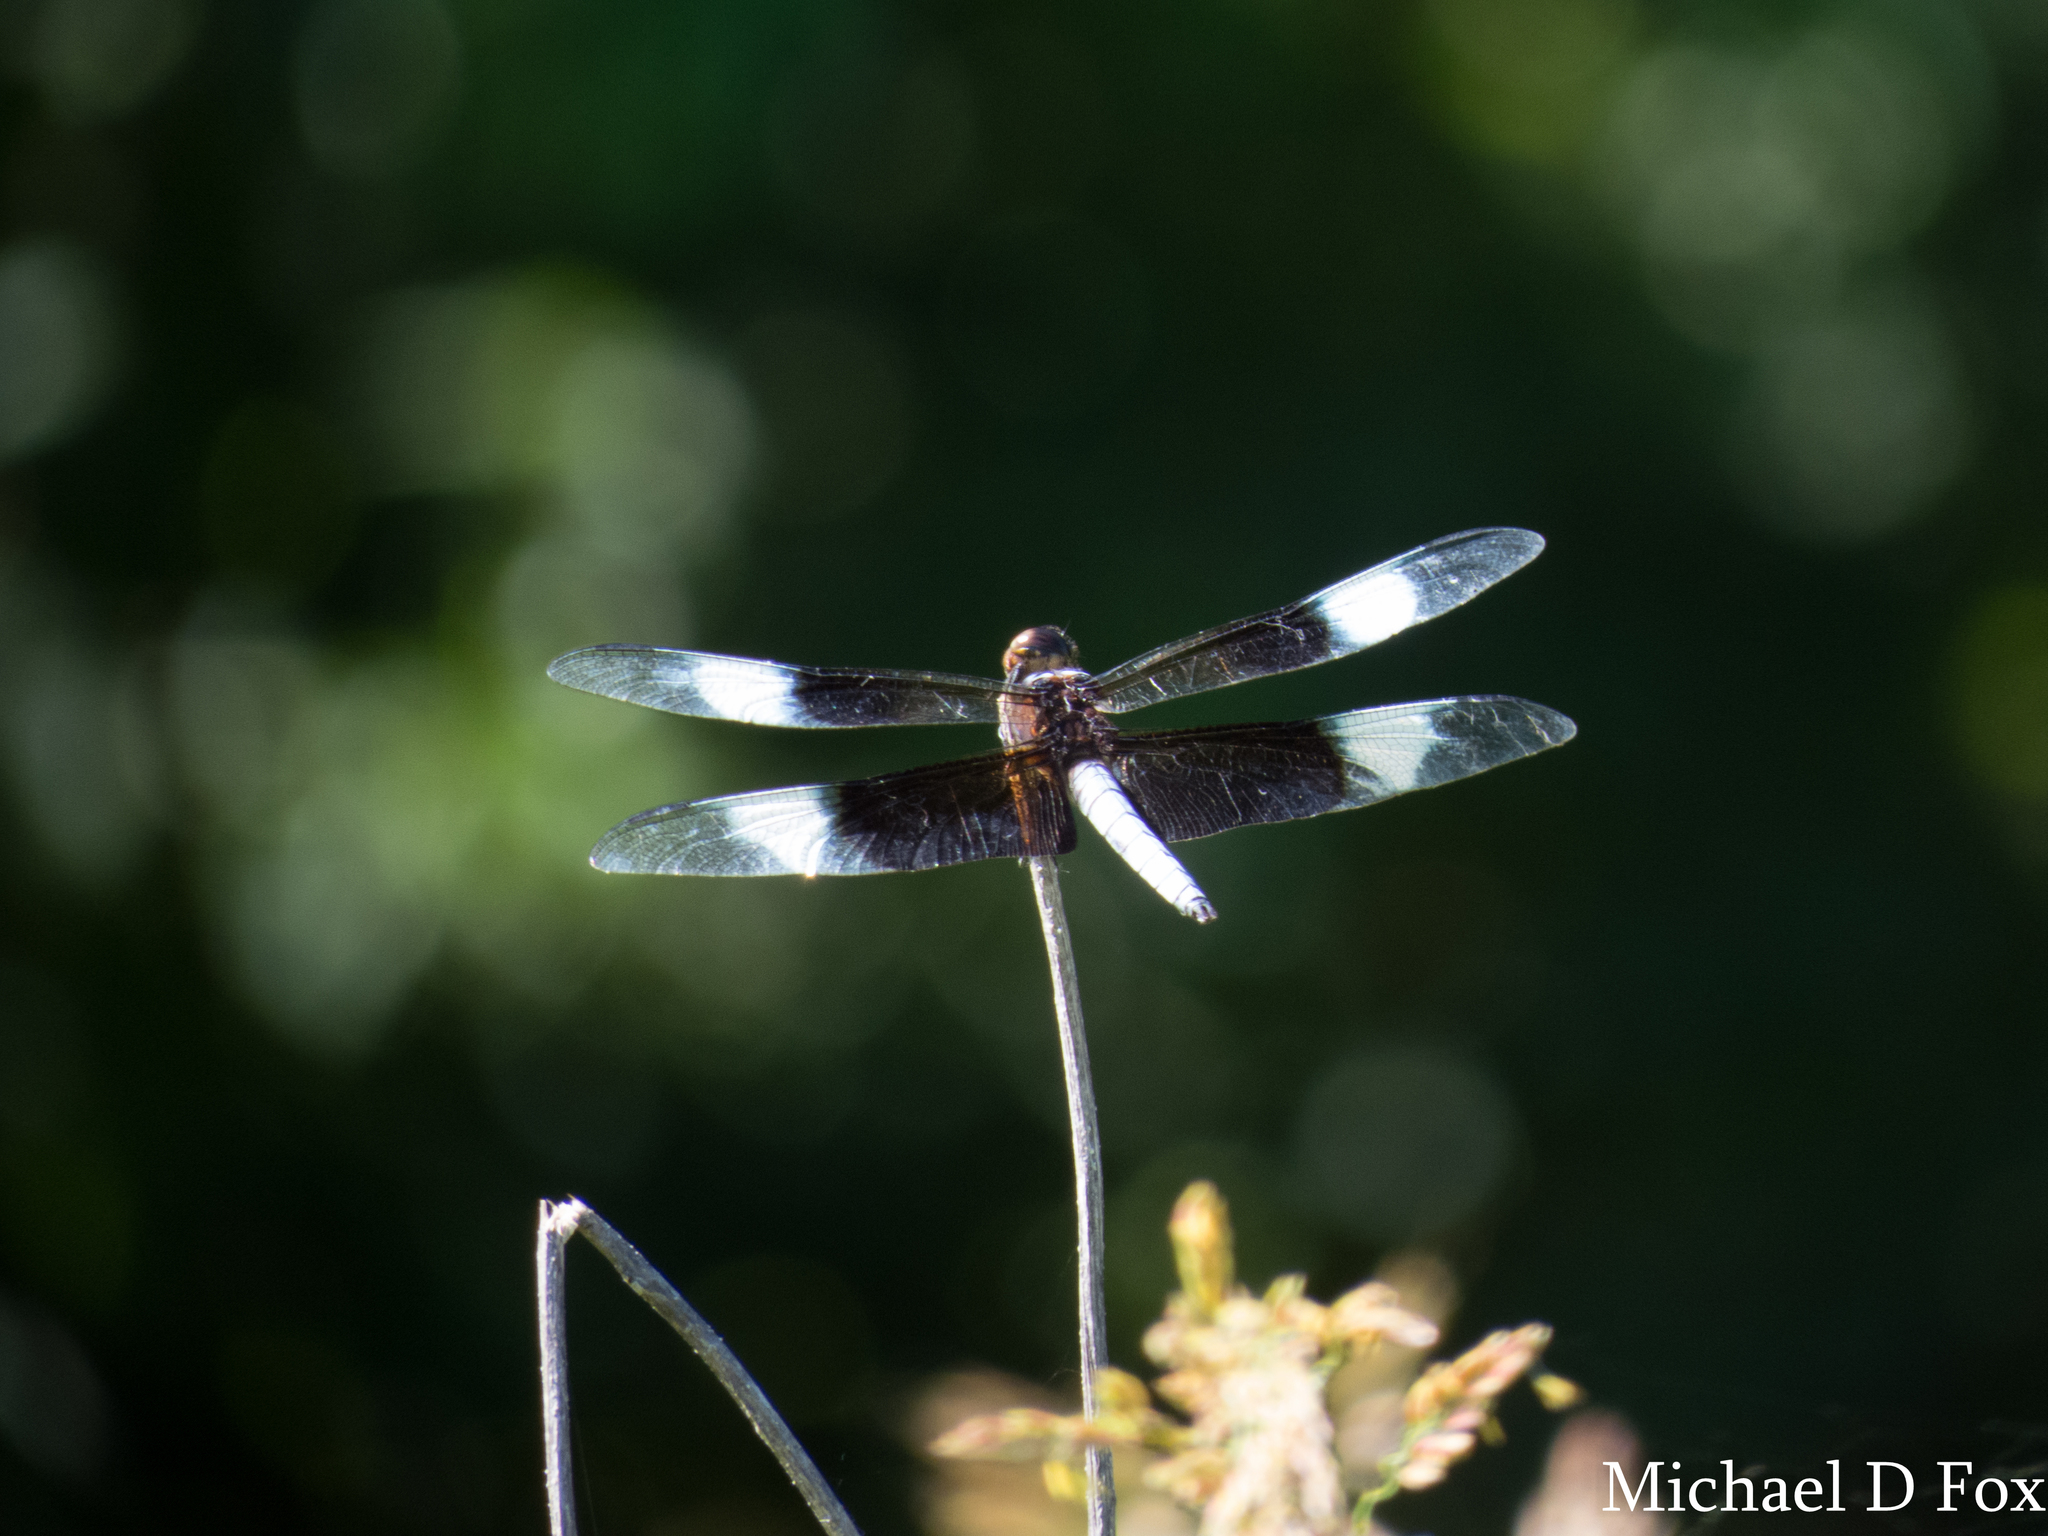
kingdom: Animalia
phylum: Arthropoda
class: Insecta
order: Odonata
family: Libellulidae
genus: Libellula
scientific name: Libellula luctuosa
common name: Widow skimmer
